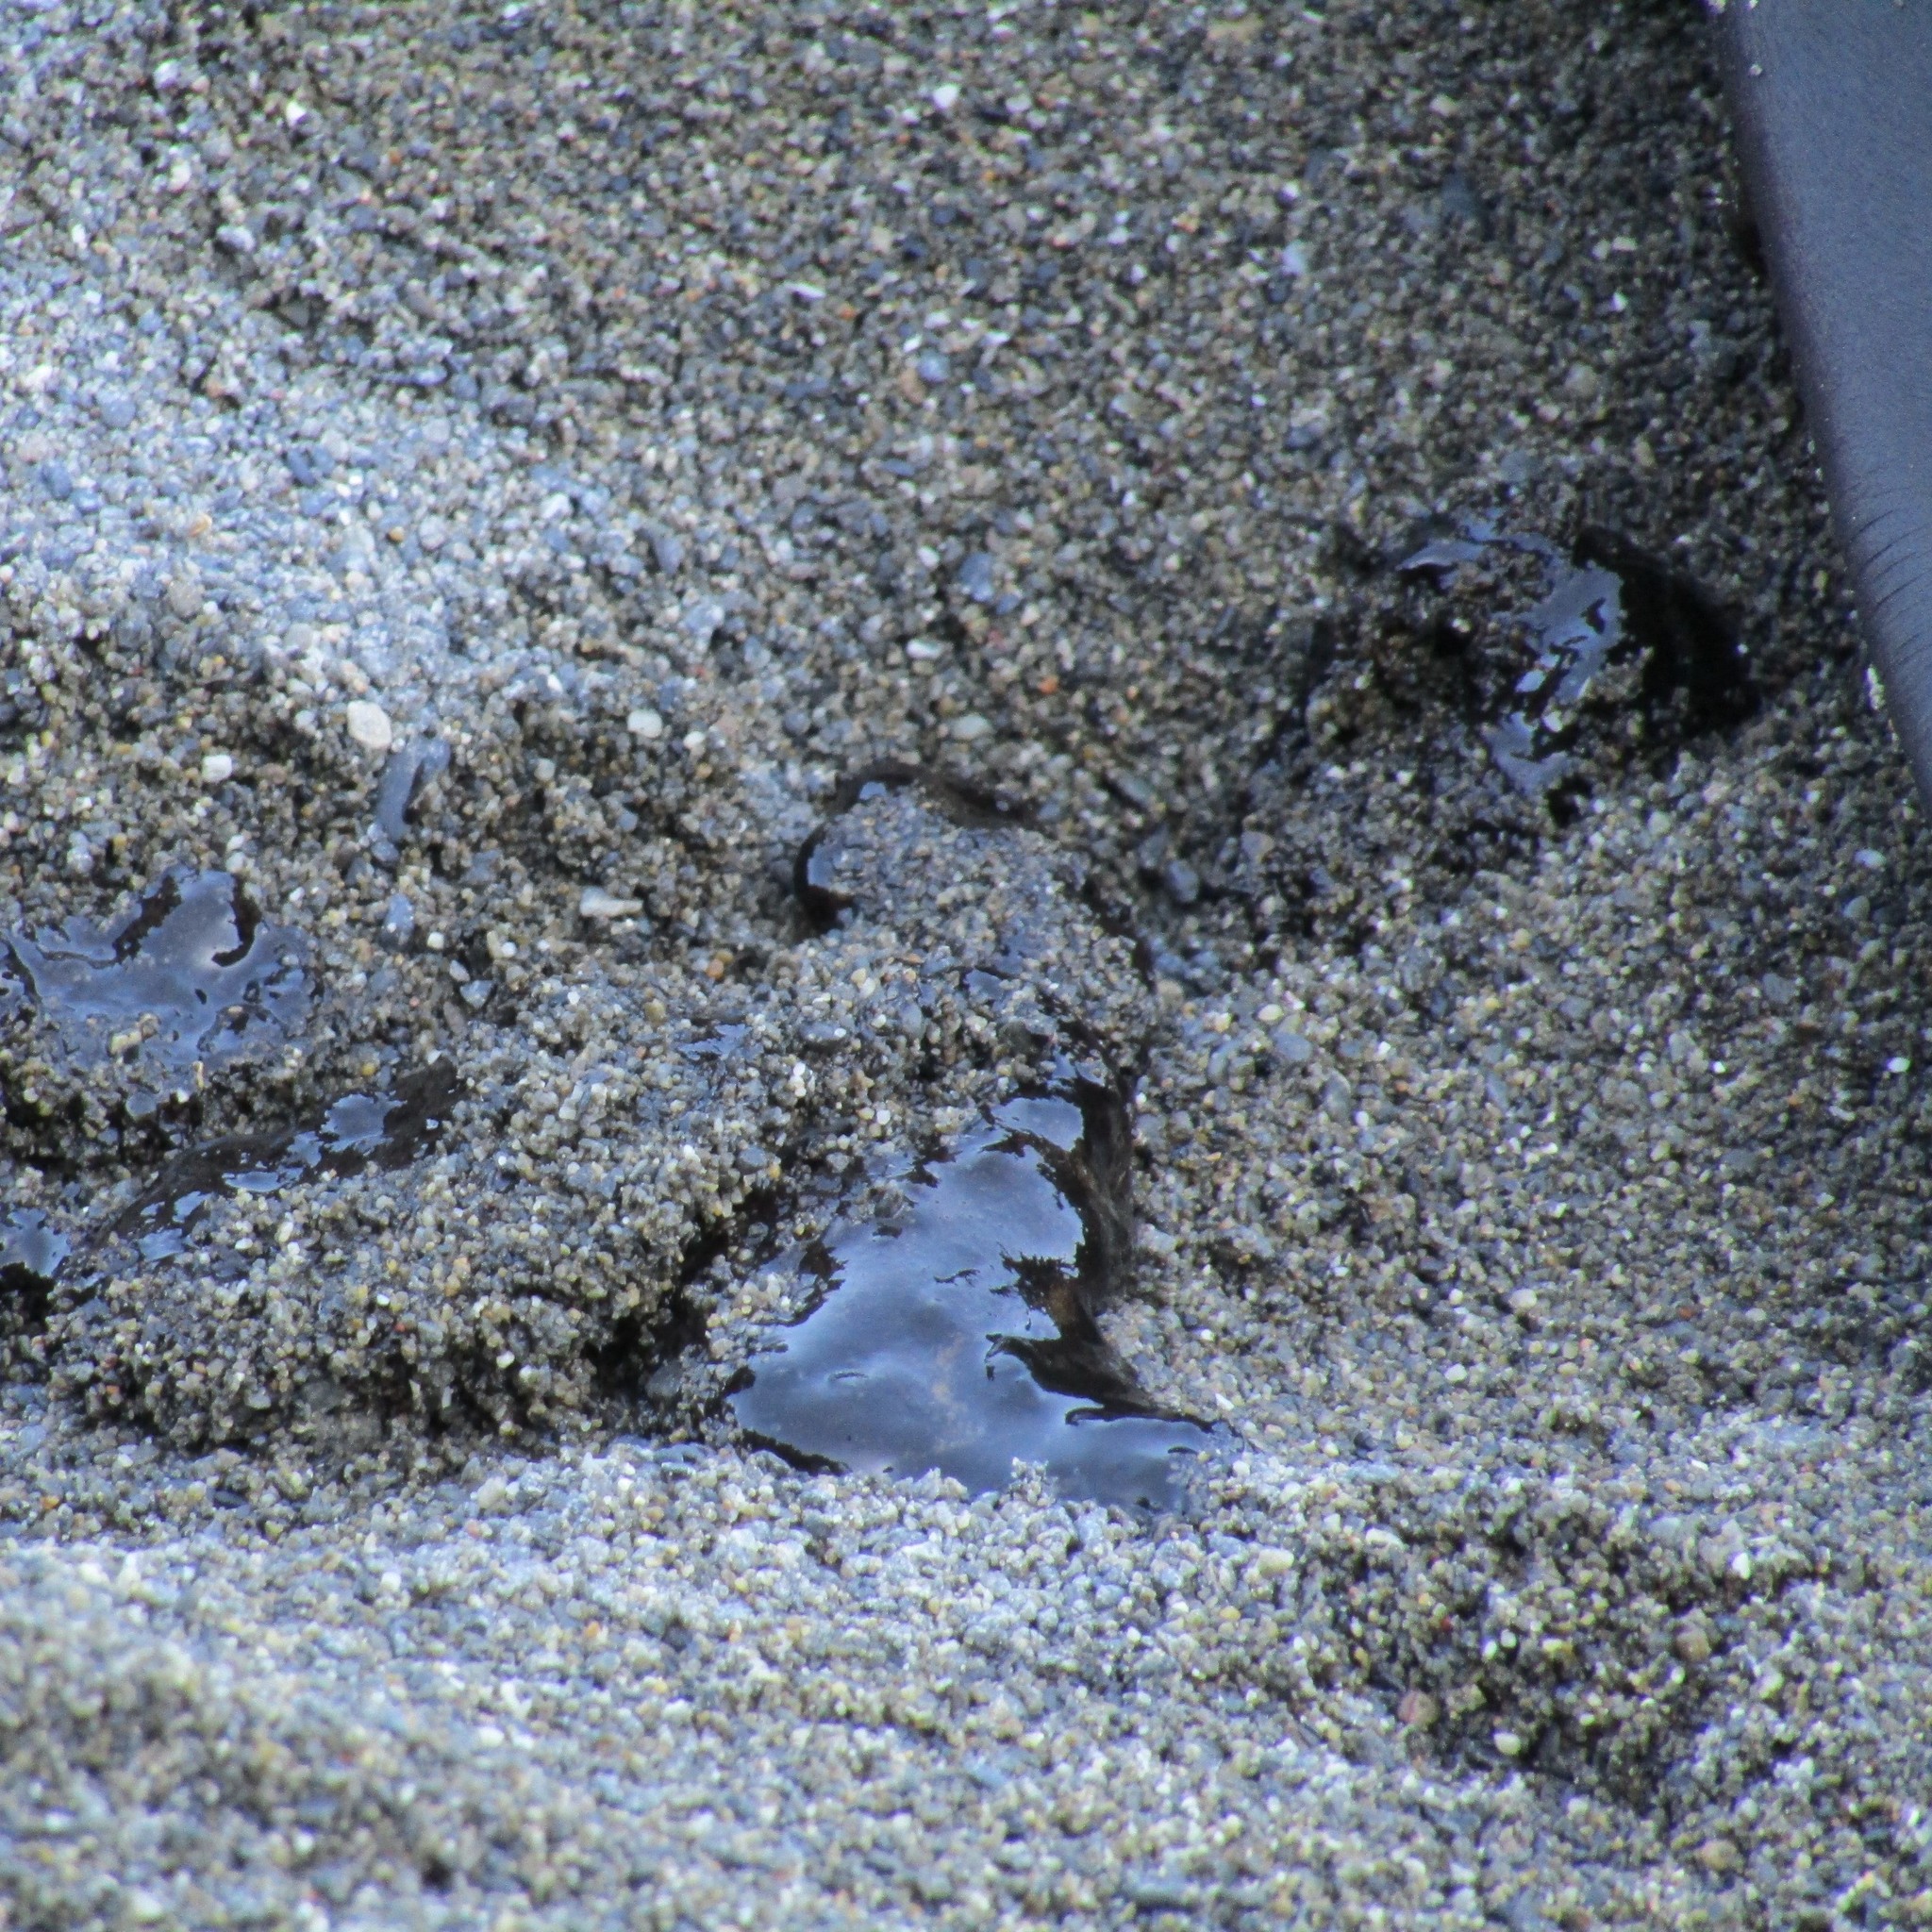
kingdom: Animalia
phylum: Chordata
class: Mammalia
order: Carnivora
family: Otariidae
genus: Arctocephalus
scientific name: Arctocephalus forsteri
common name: New zealand fur seal
